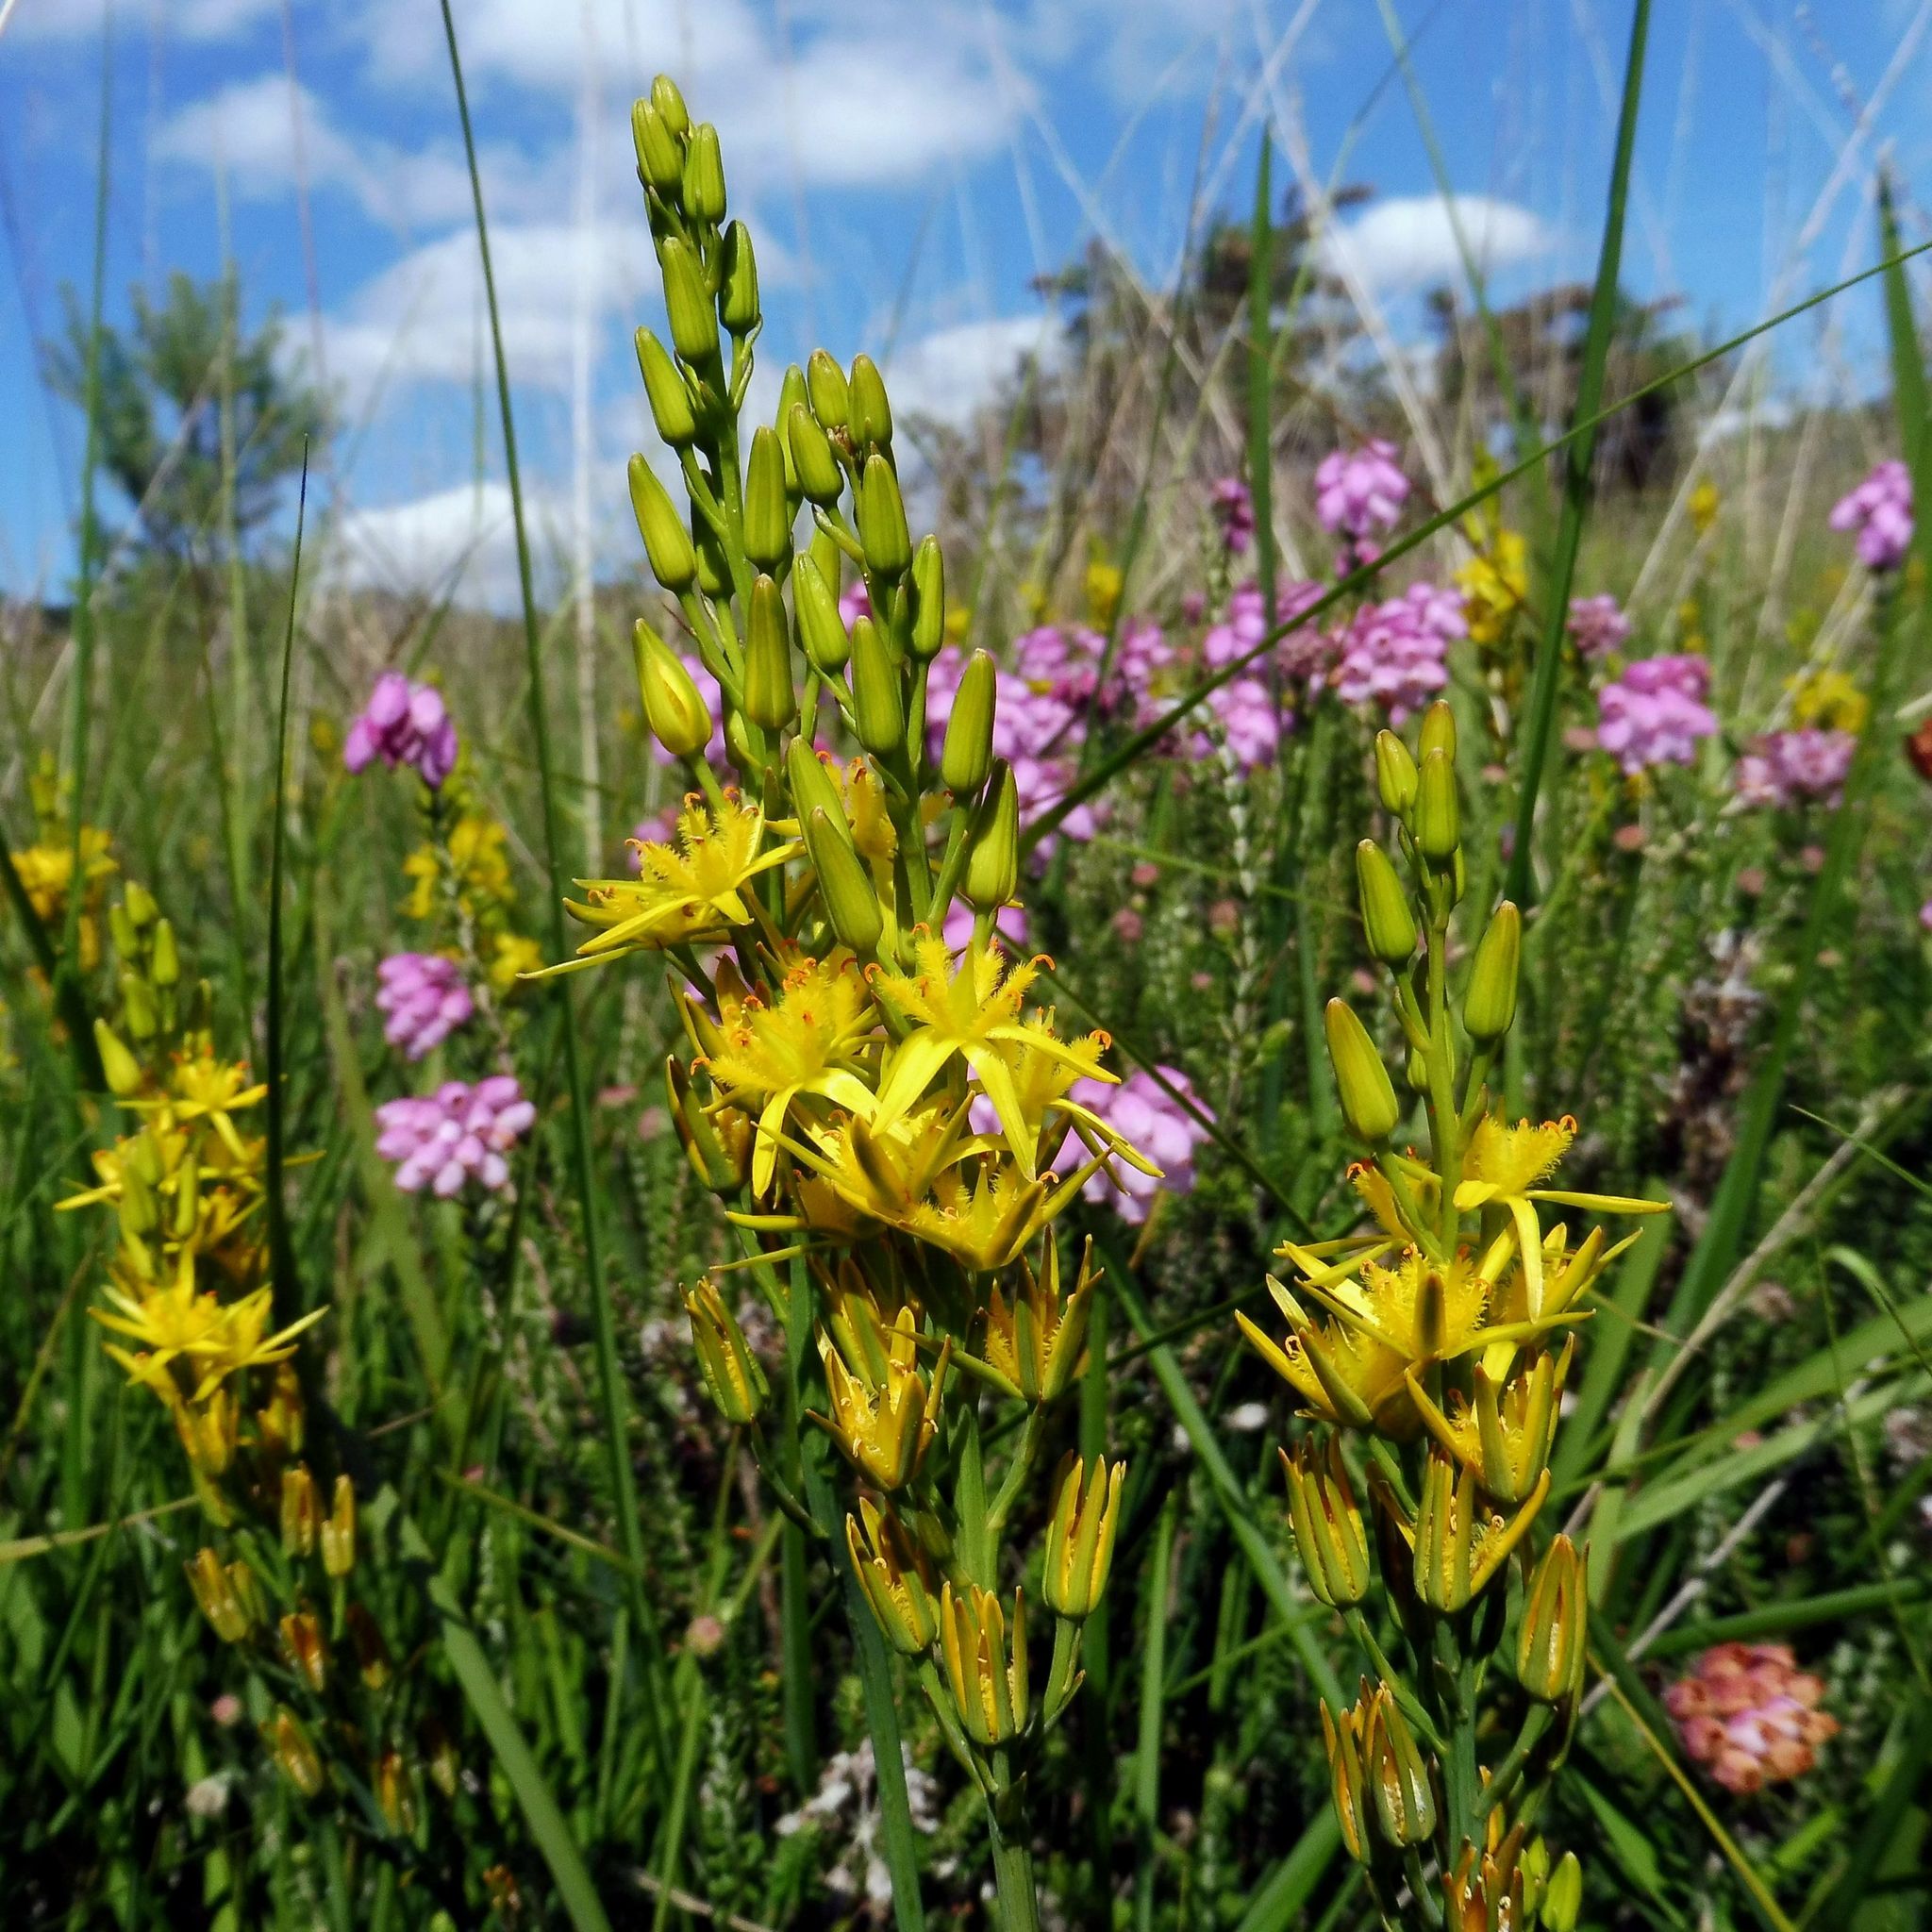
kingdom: Plantae
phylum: Tracheophyta
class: Liliopsida
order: Dioscoreales
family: Nartheciaceae
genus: Narthecium
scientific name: Narthecium ossifragum
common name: Bog asphodel
